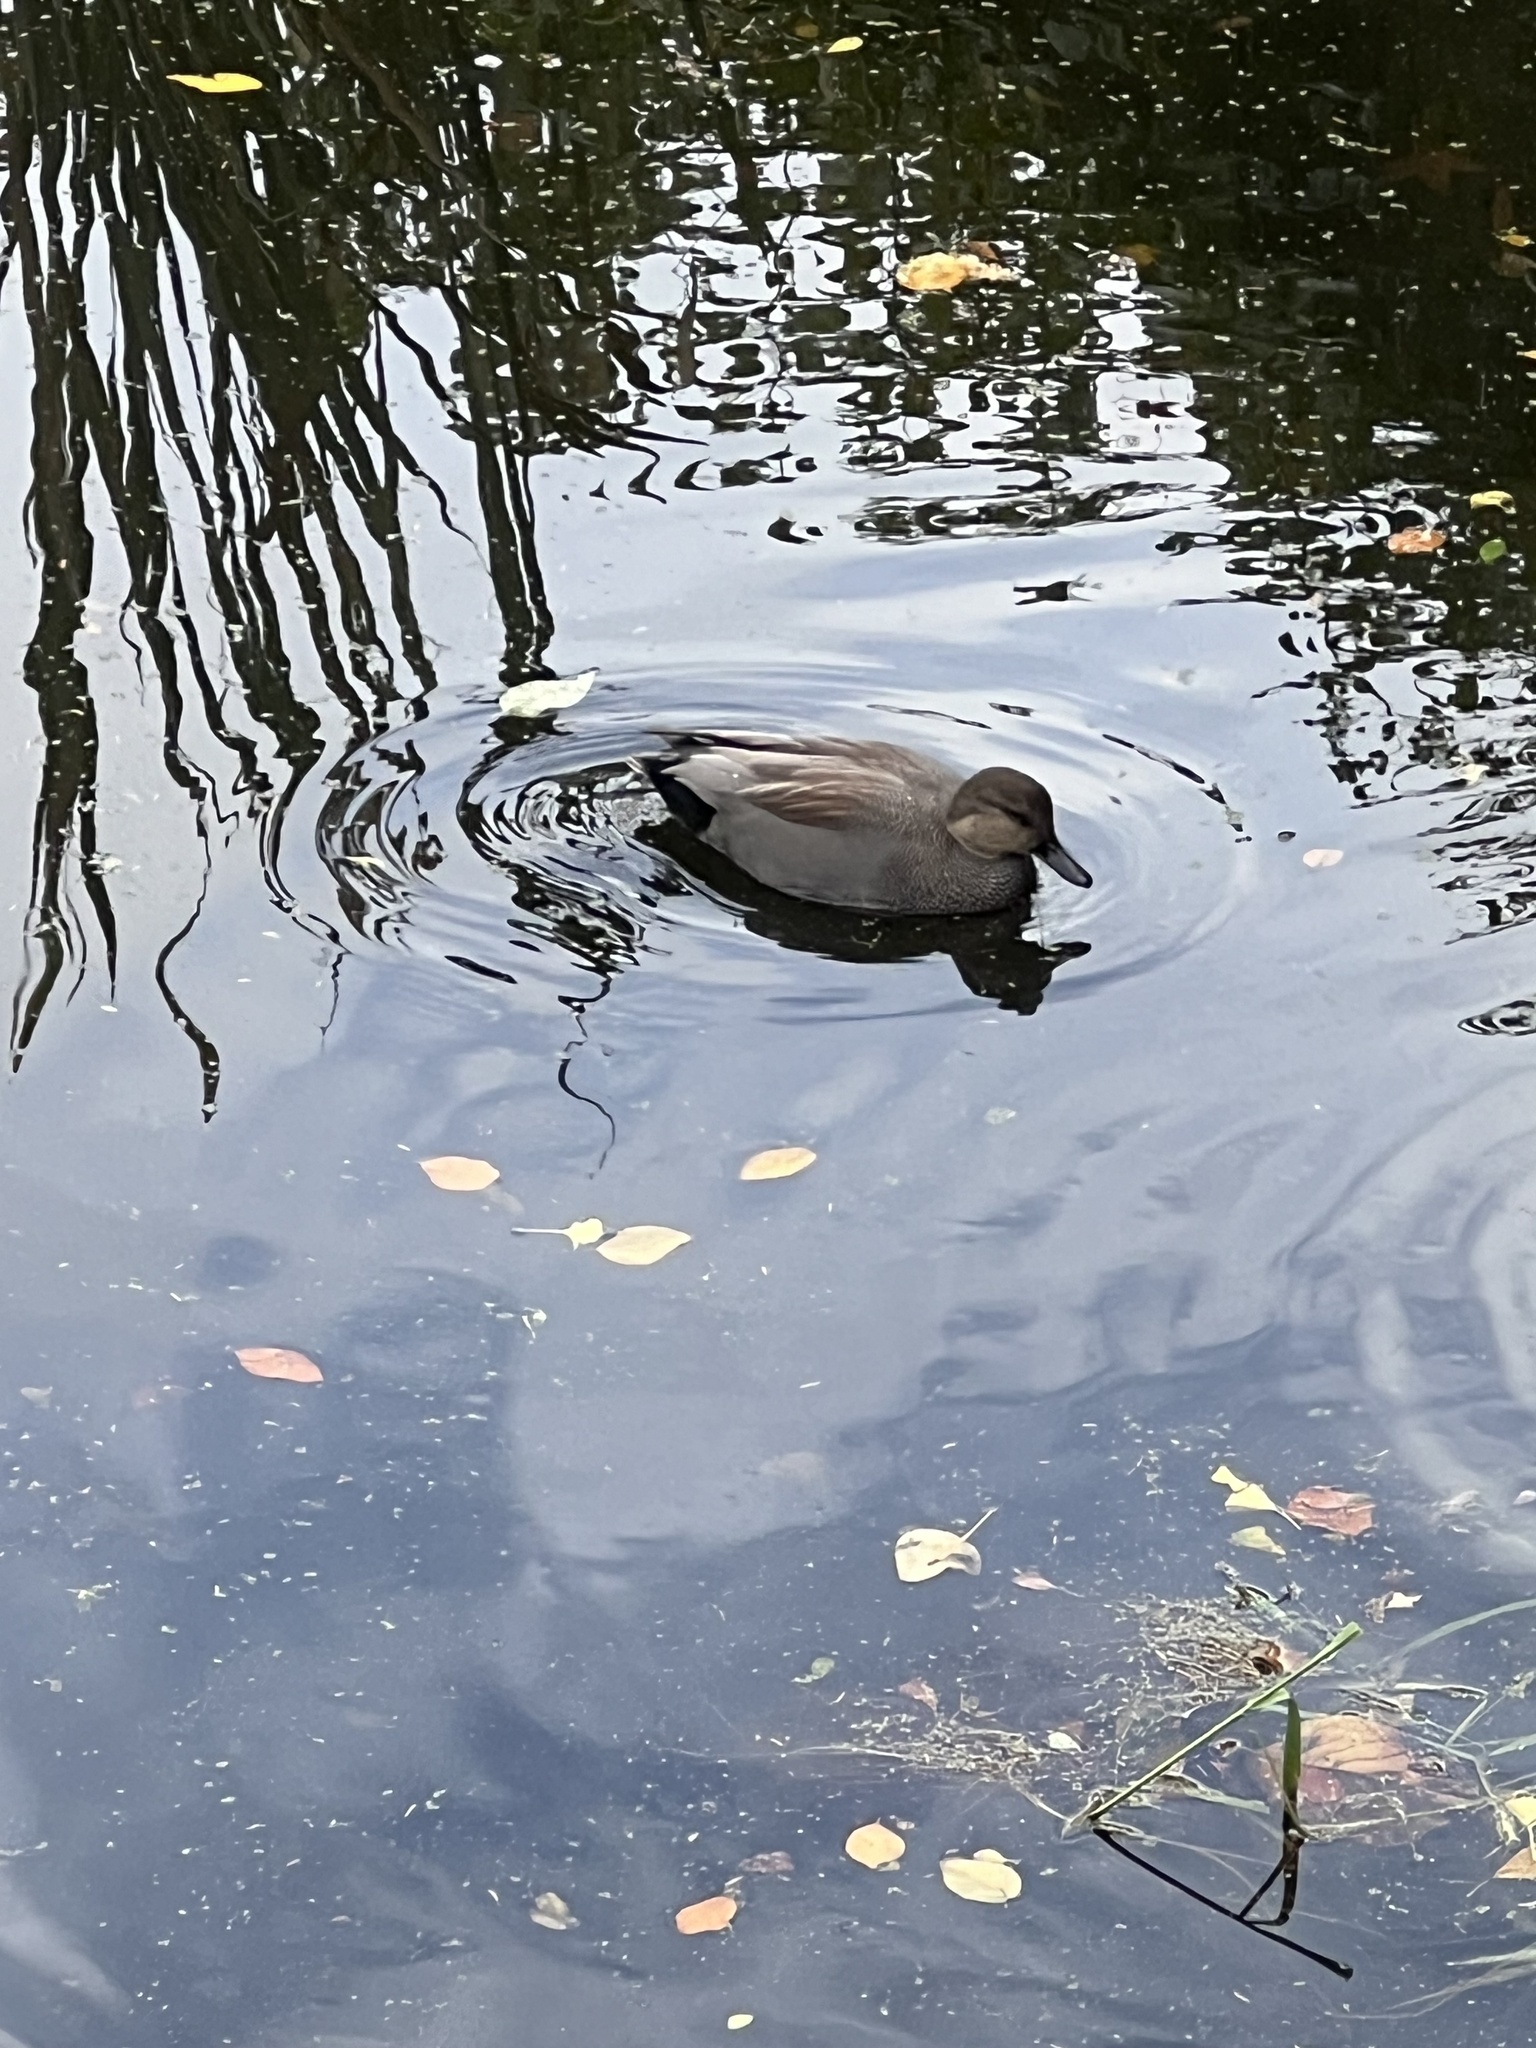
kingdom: Animalia
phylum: Chordata
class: Aves
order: Anseriformes
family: Anatidae
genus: Mareca
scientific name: Mareca strepera
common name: Gadwall
